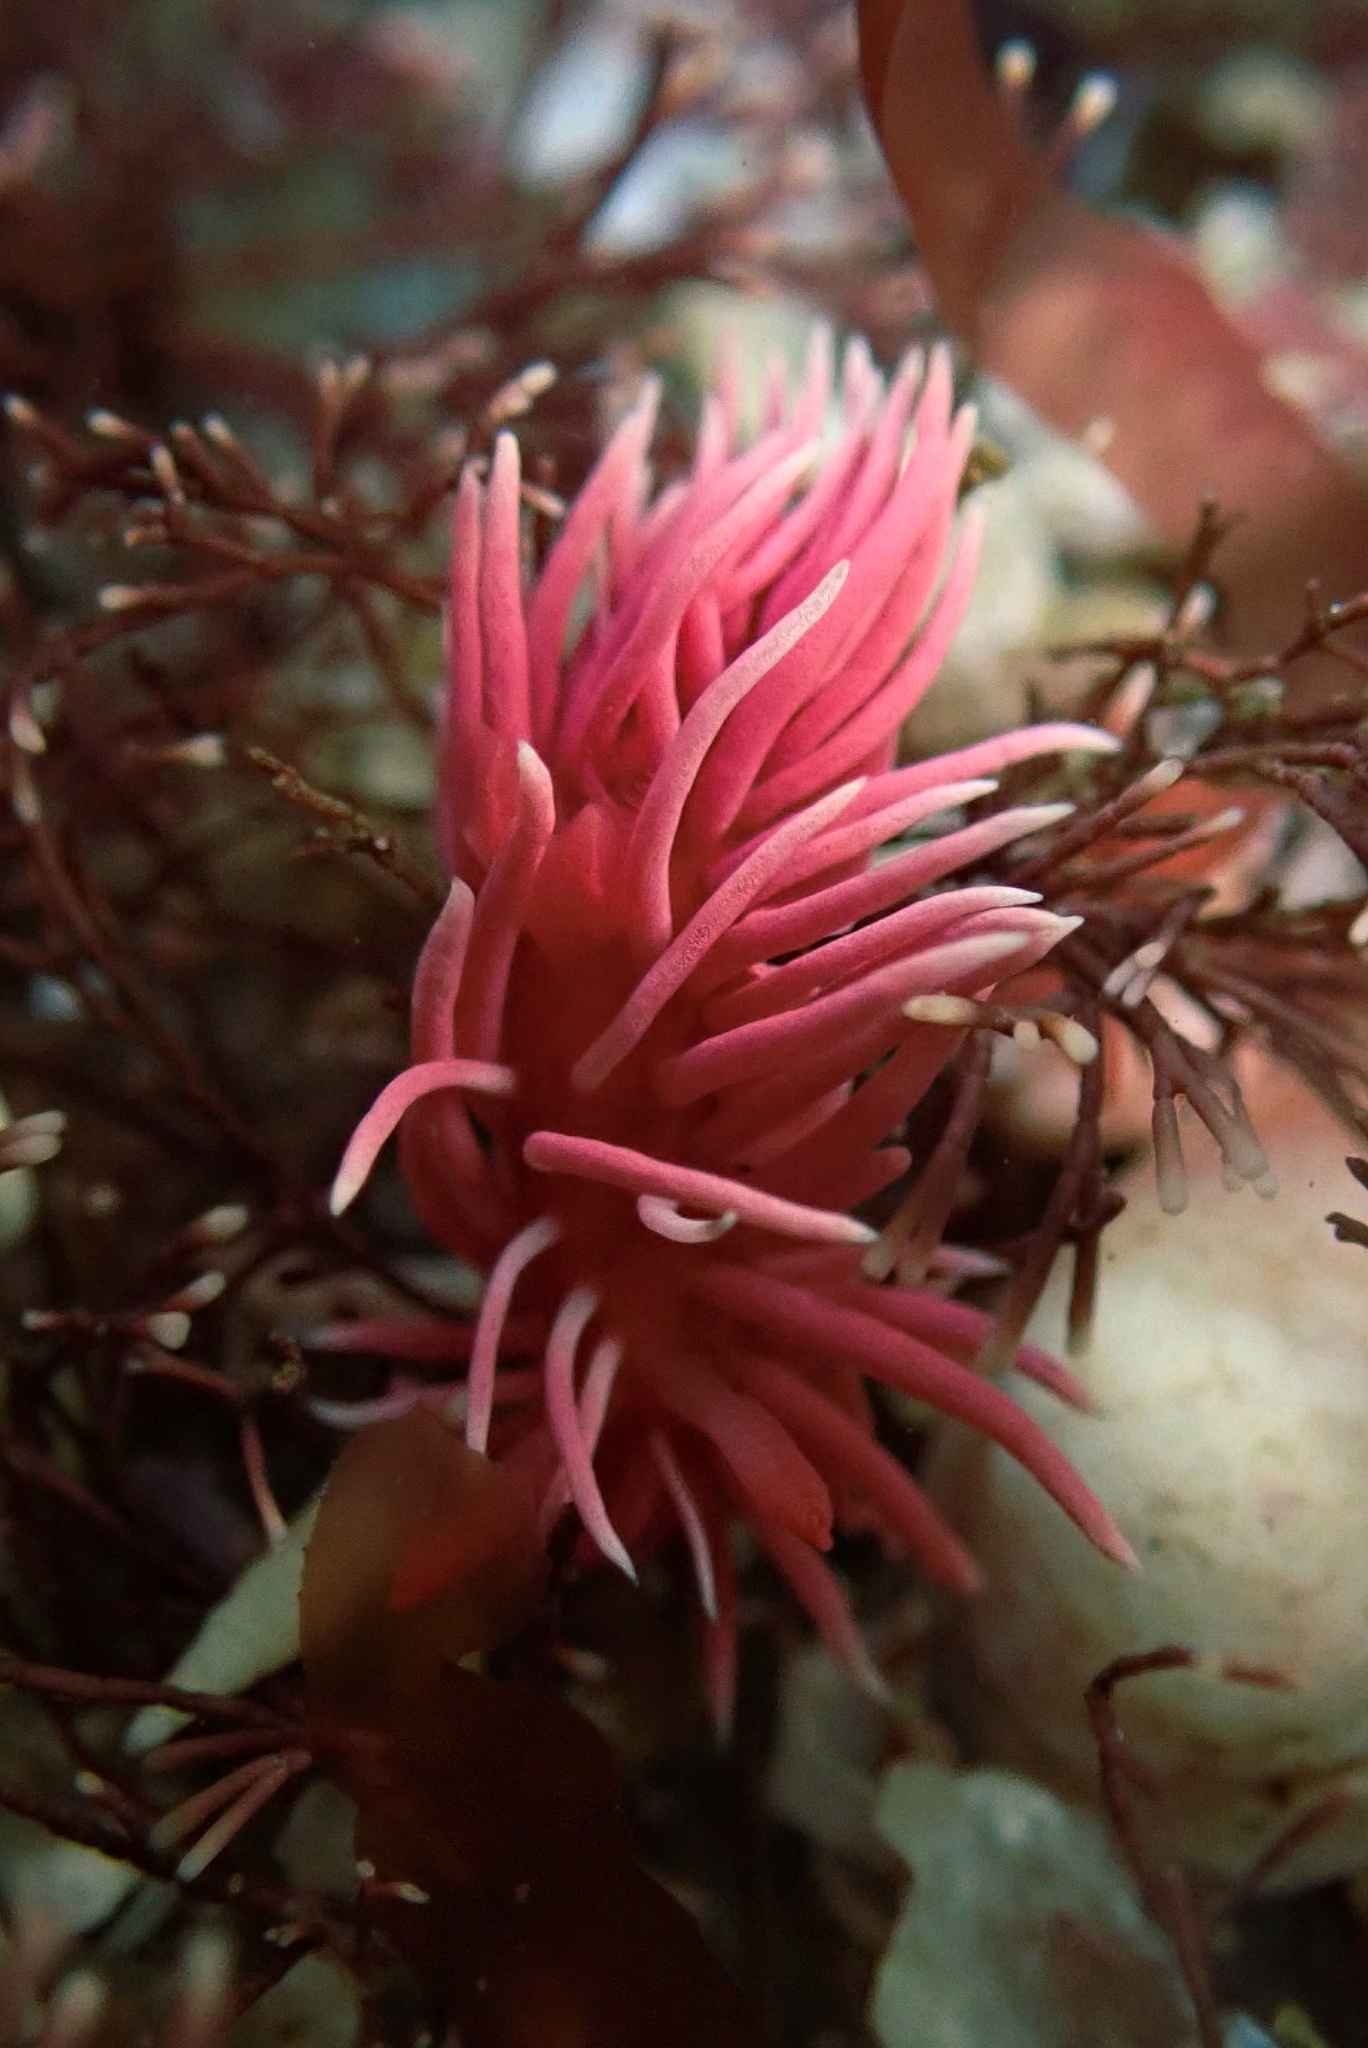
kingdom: Animalia
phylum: Mollusca
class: Gastropoda
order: Nudibranchia
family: Goniodorididae
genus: Okenia
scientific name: Okenia
